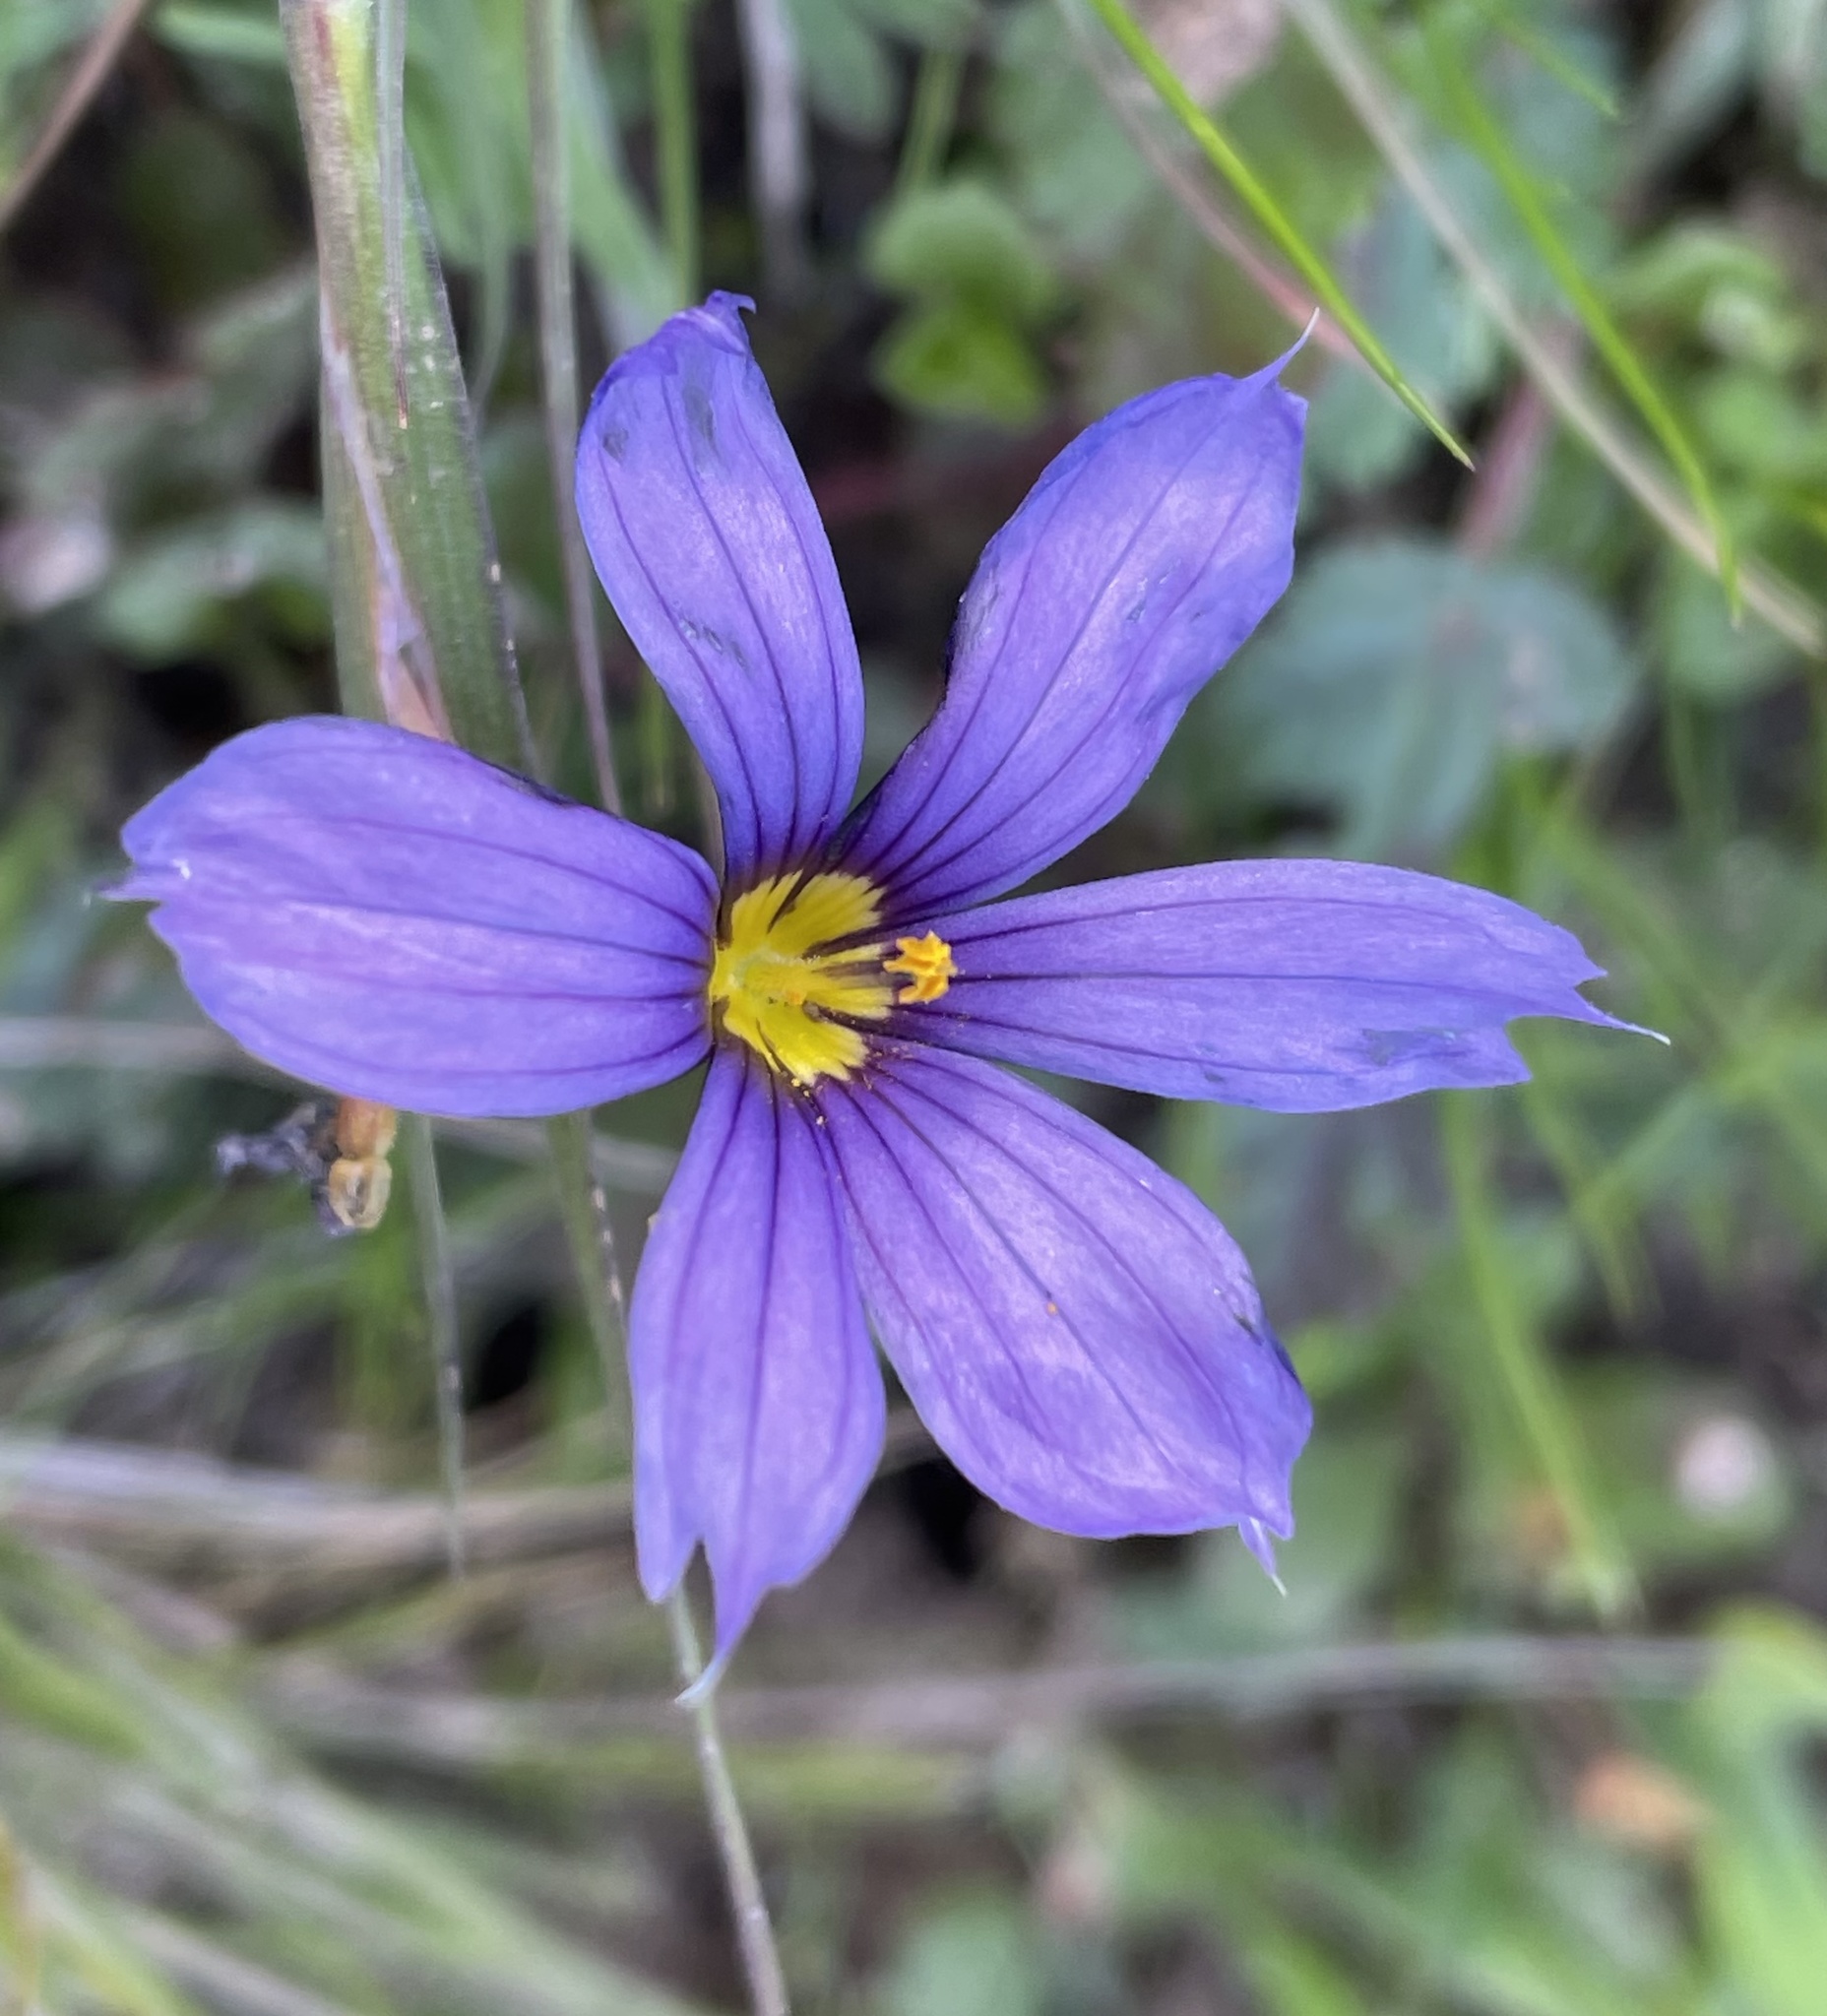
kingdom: Plantae
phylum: Tracheophyta
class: Liliopsida
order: Asparagales
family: Iridaceae
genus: Sisyrinchium
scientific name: Sisyrinchium bellum
